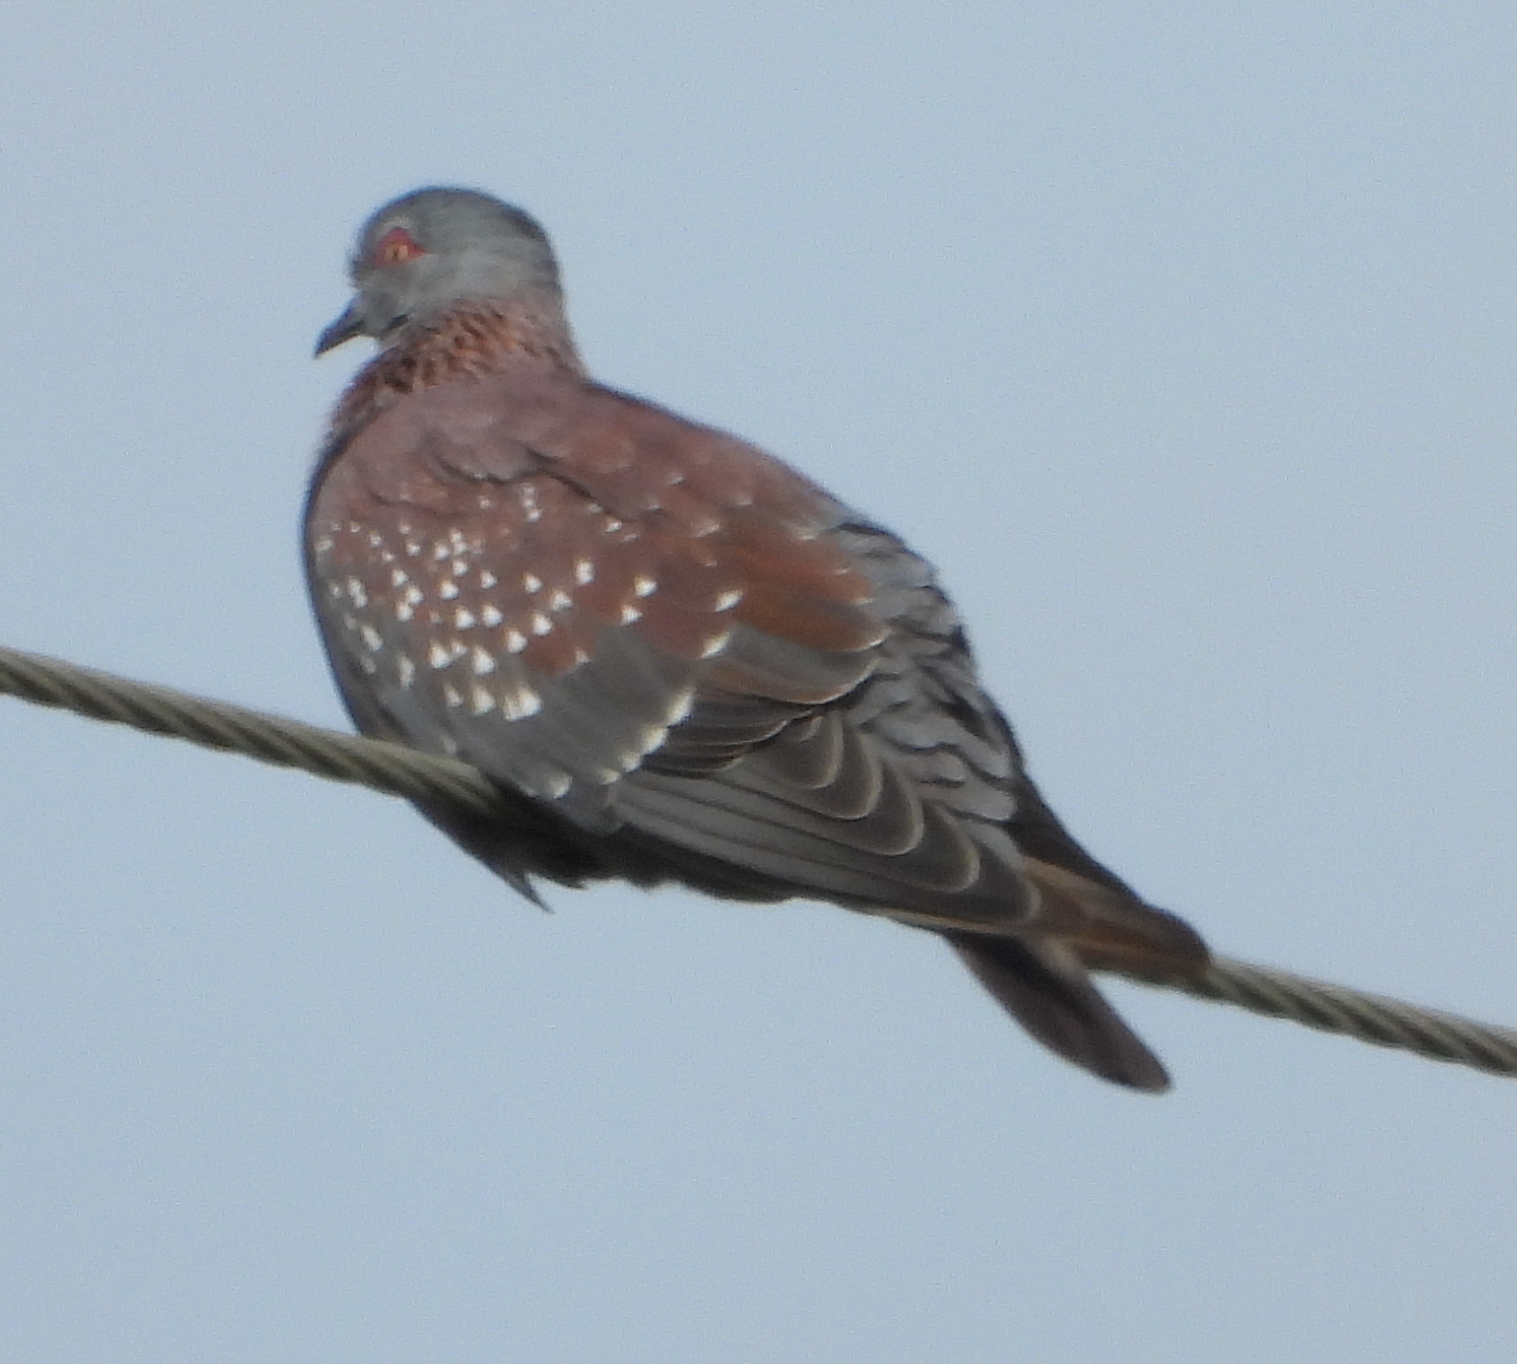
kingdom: Animalia
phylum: Chordata
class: Aves
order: Columbiformes
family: Columbidae
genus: Columba
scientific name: Columba guinea
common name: Speckled pigeon
